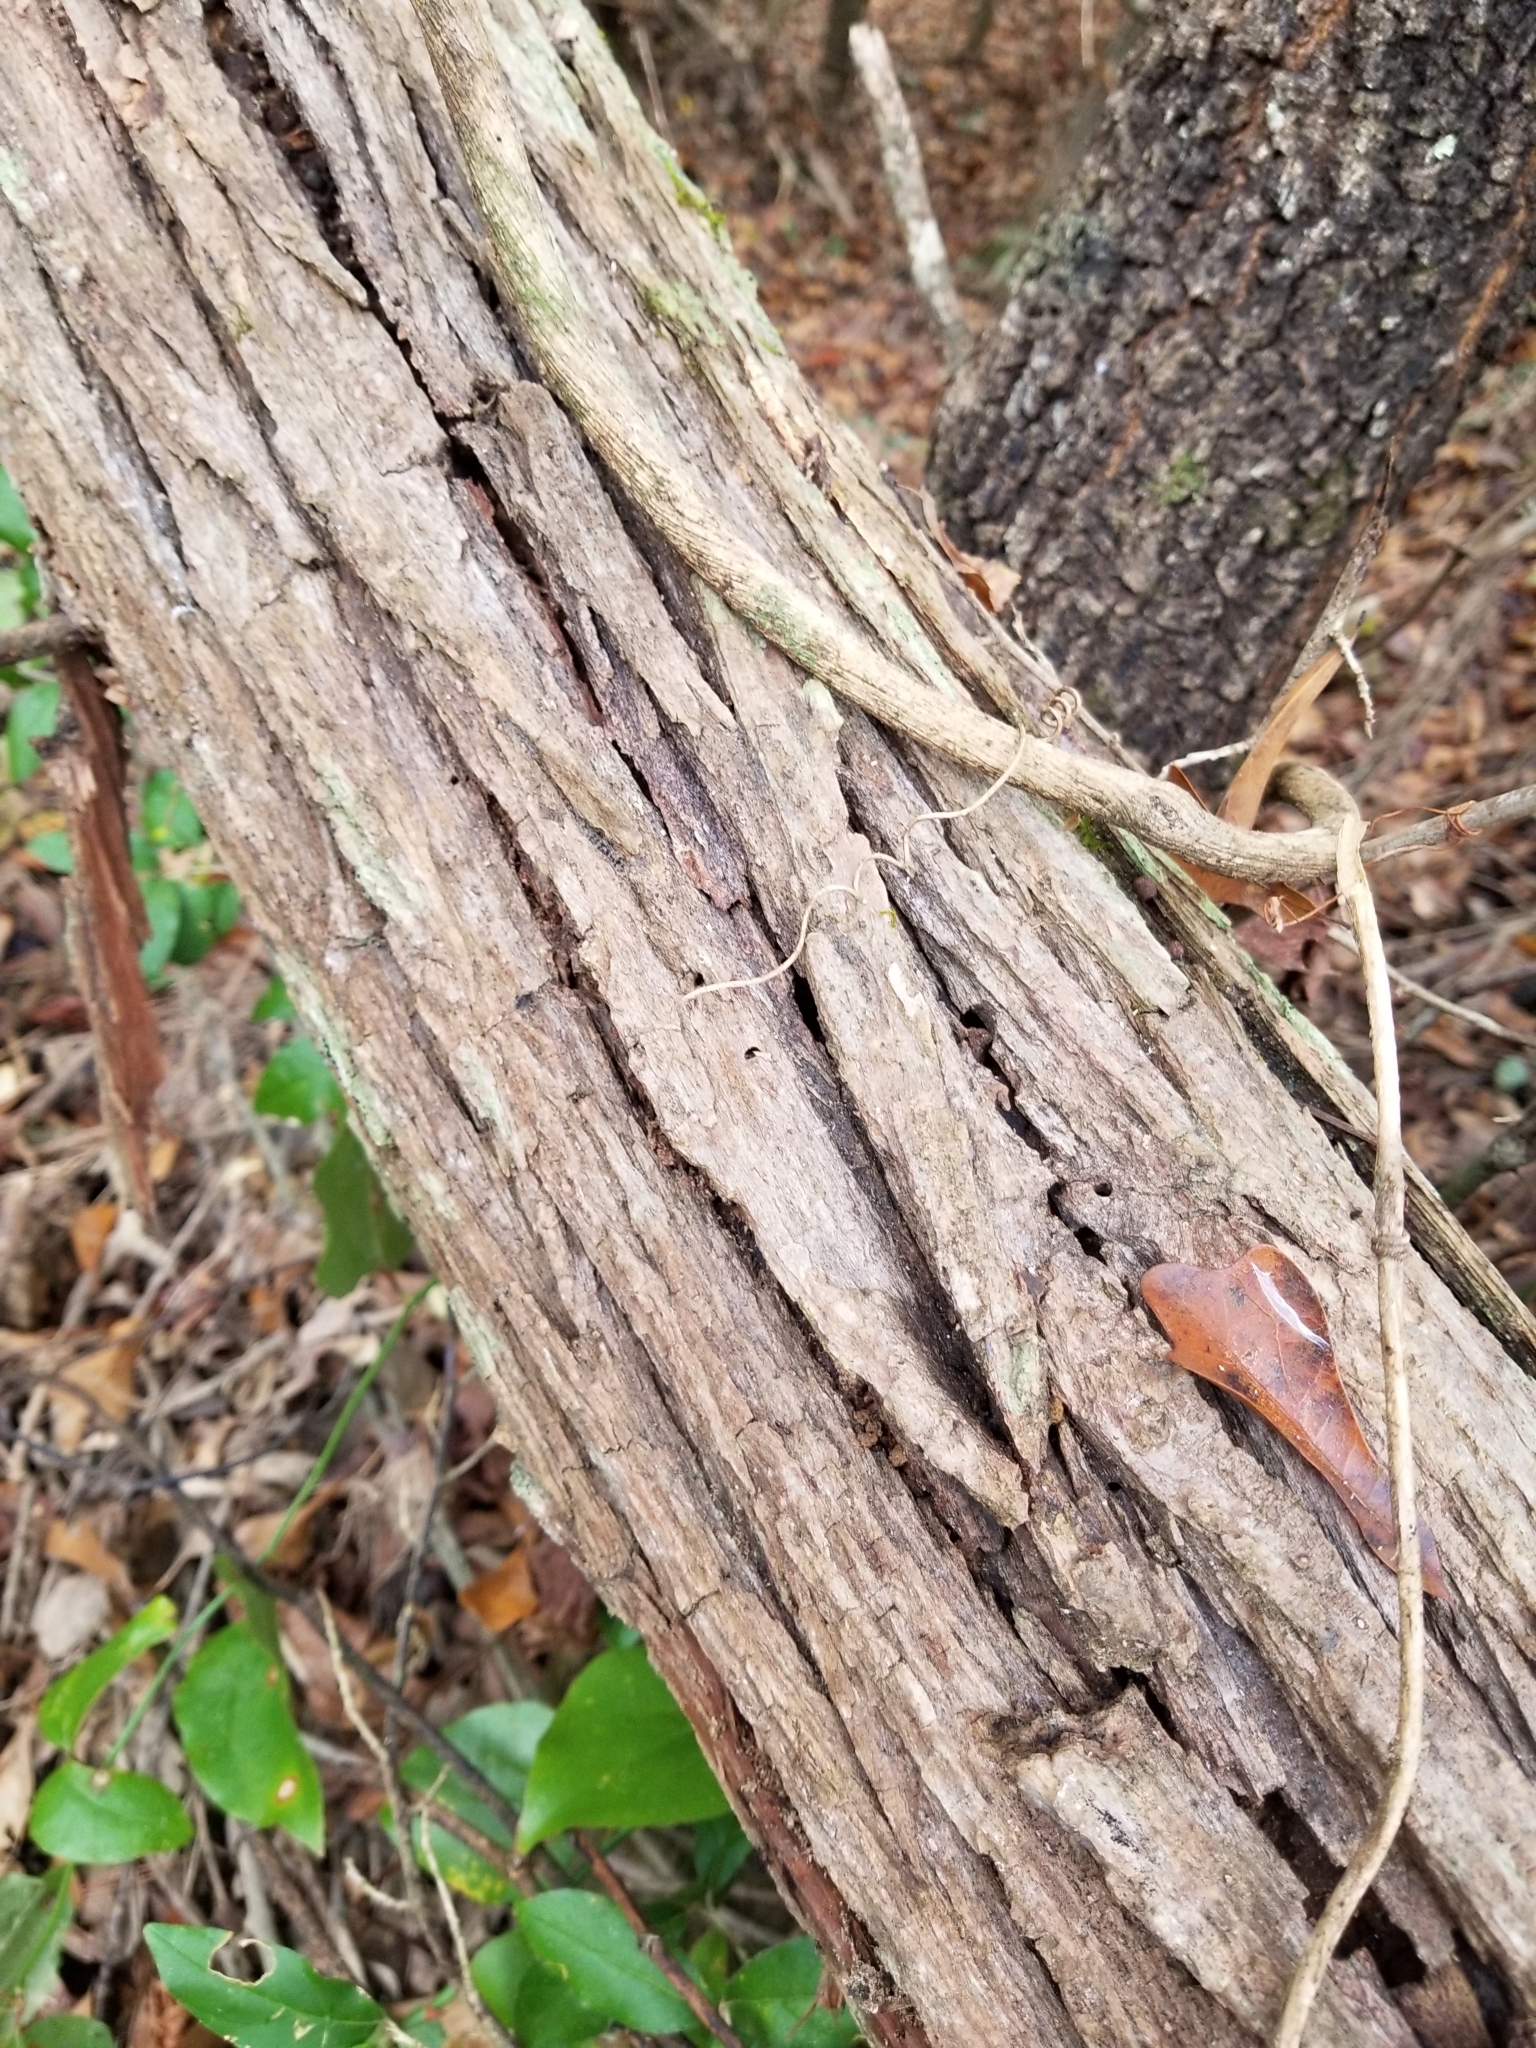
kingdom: Fungi
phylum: Basidiomycota
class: Agaricomycetes
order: Agaricales
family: Physalacriaceae
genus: Desarmillaria
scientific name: Desarmillaria caespitosa
